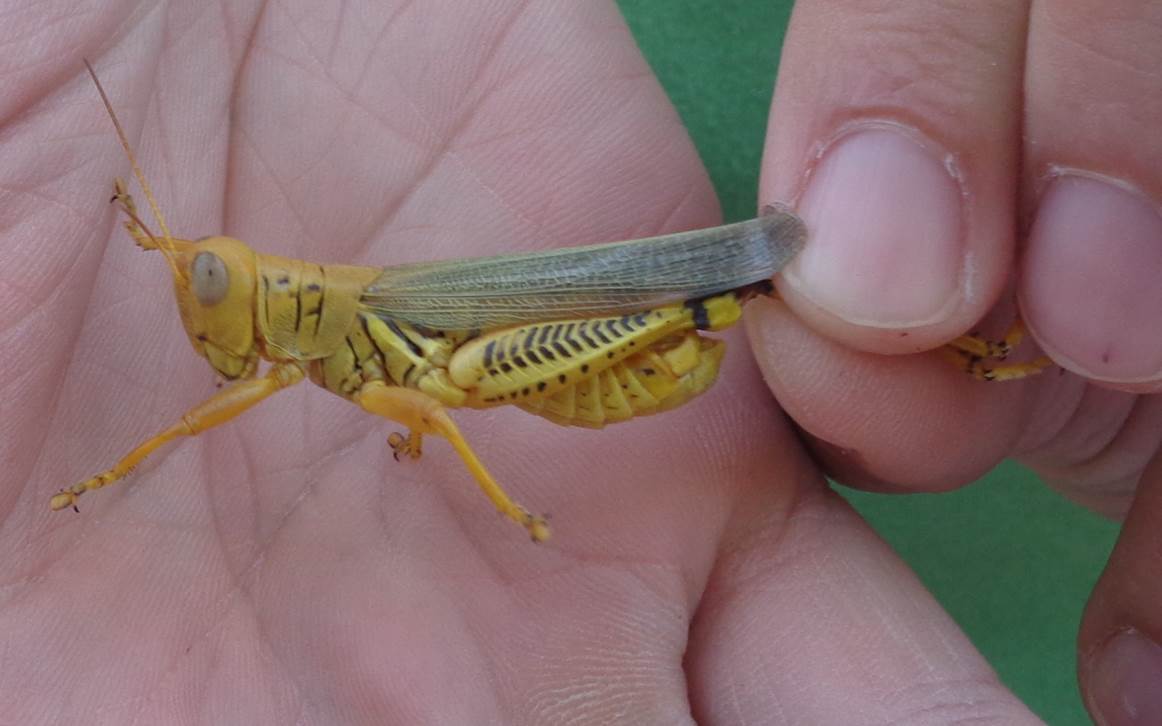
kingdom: Animalia
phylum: Arthropoda
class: Insecta
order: Orthoptera
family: Acrididae
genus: Melanoplus
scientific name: Melanoplus differentialis
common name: Differential grasshopper
